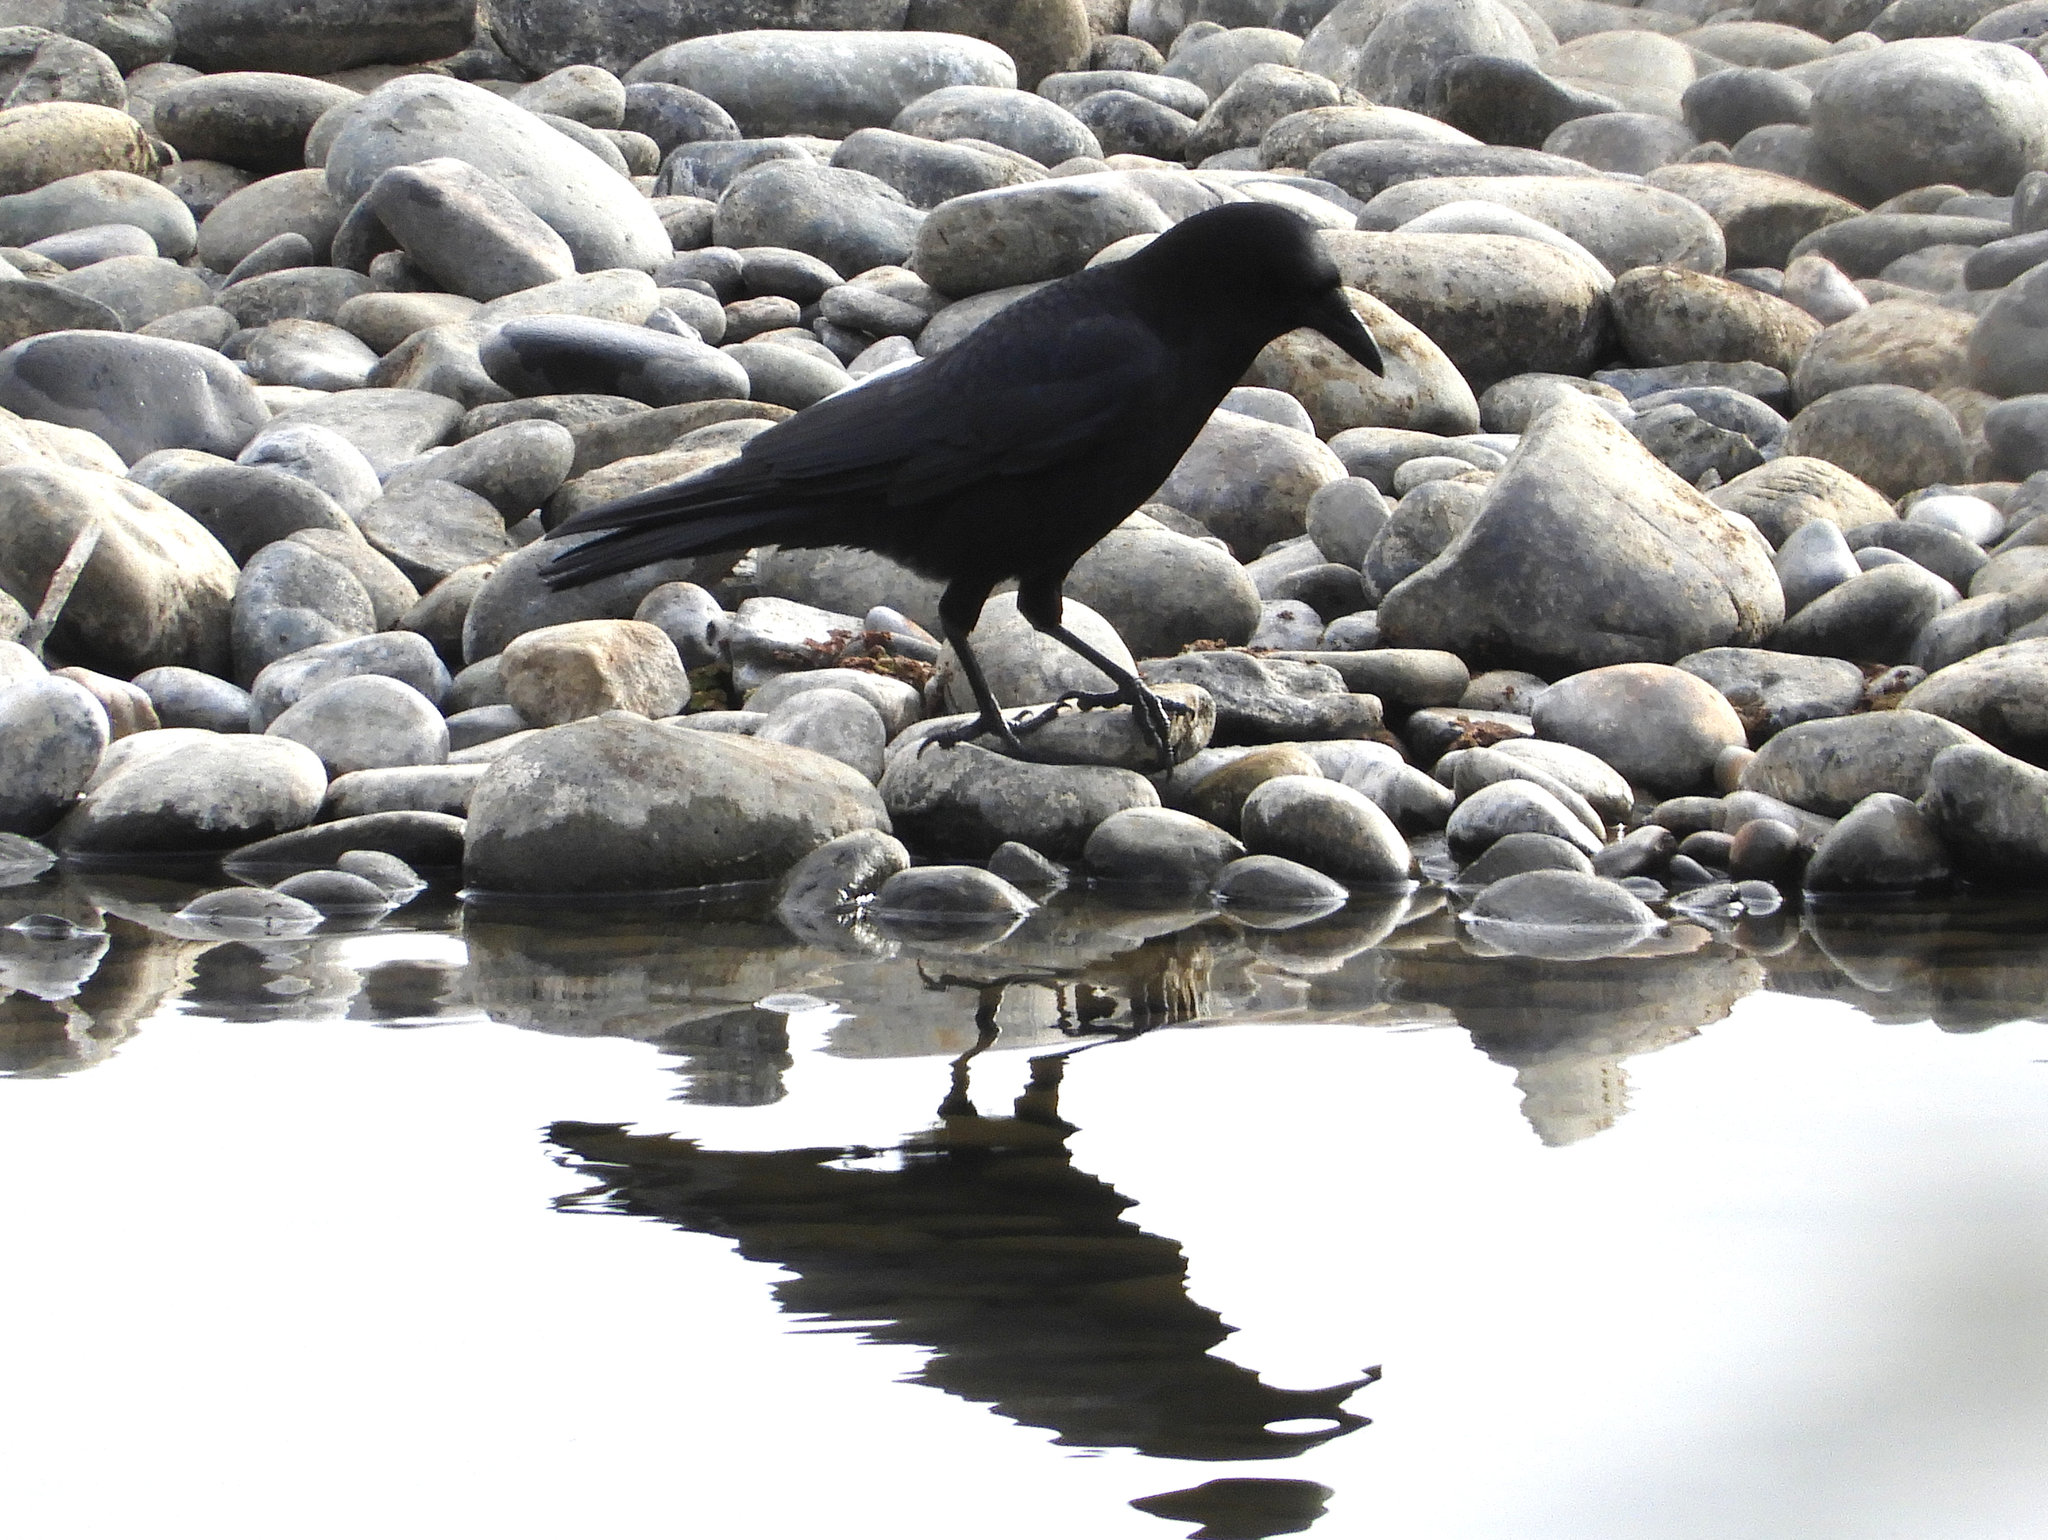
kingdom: Animalia
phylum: Chordata
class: Aves
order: Passeriformes
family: Corvidae
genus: Corvus
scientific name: Corvus brachyrhynchos
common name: American crow
